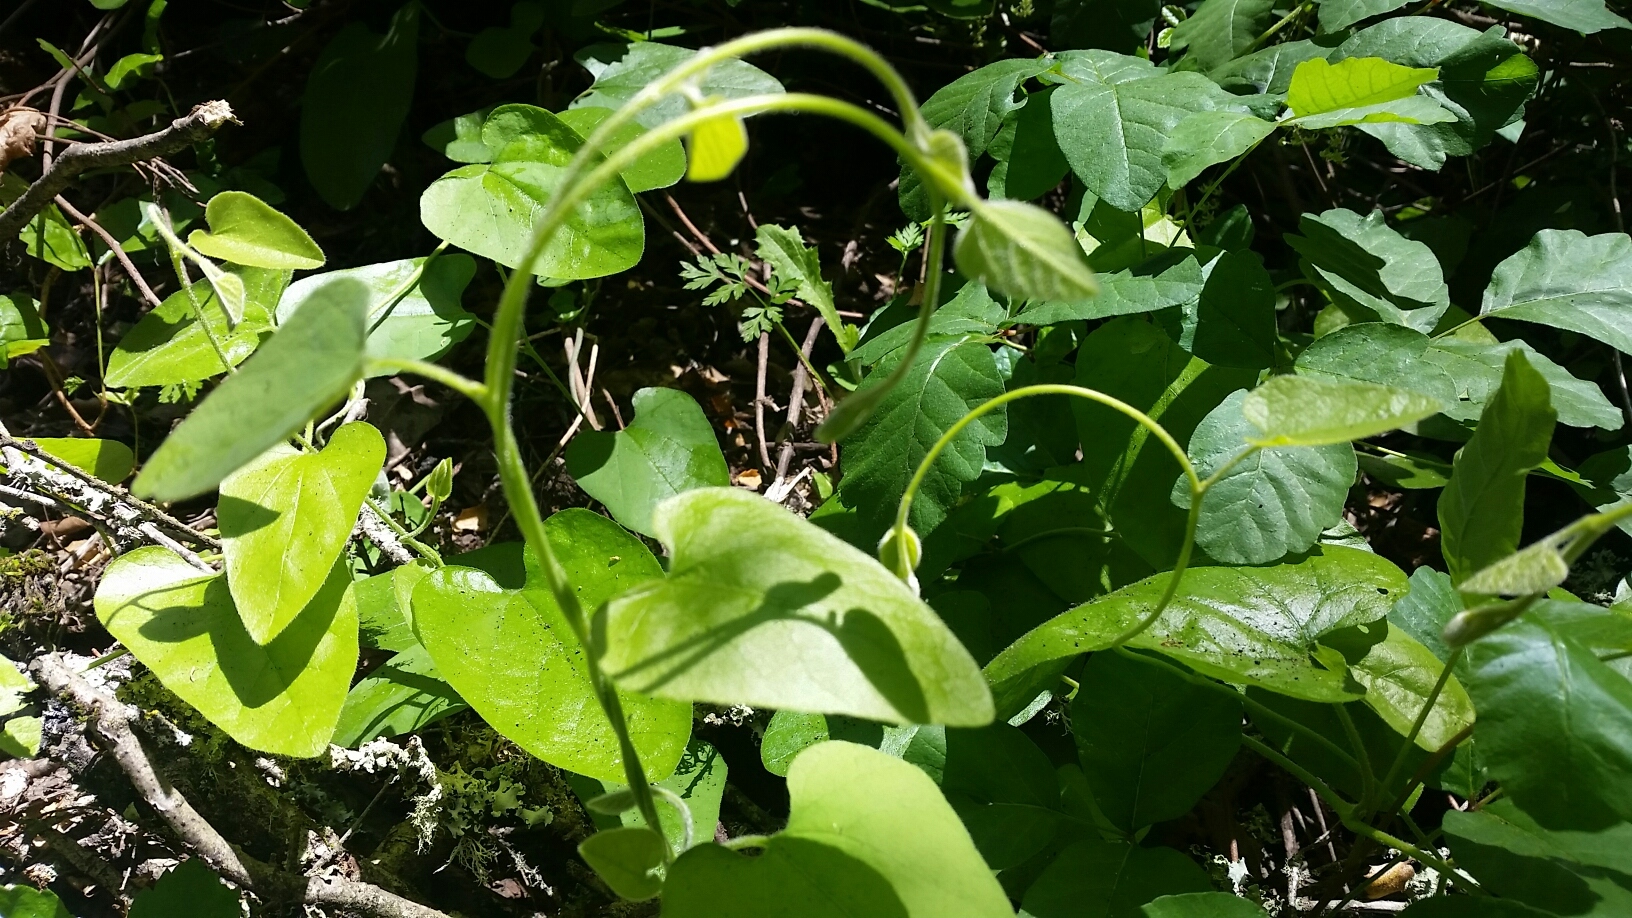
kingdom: Plantae
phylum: Tracheophyta
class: Magnoliopsida
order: Piperales
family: Aristolochiaceae
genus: Isotrema
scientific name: Isotrema californicum
